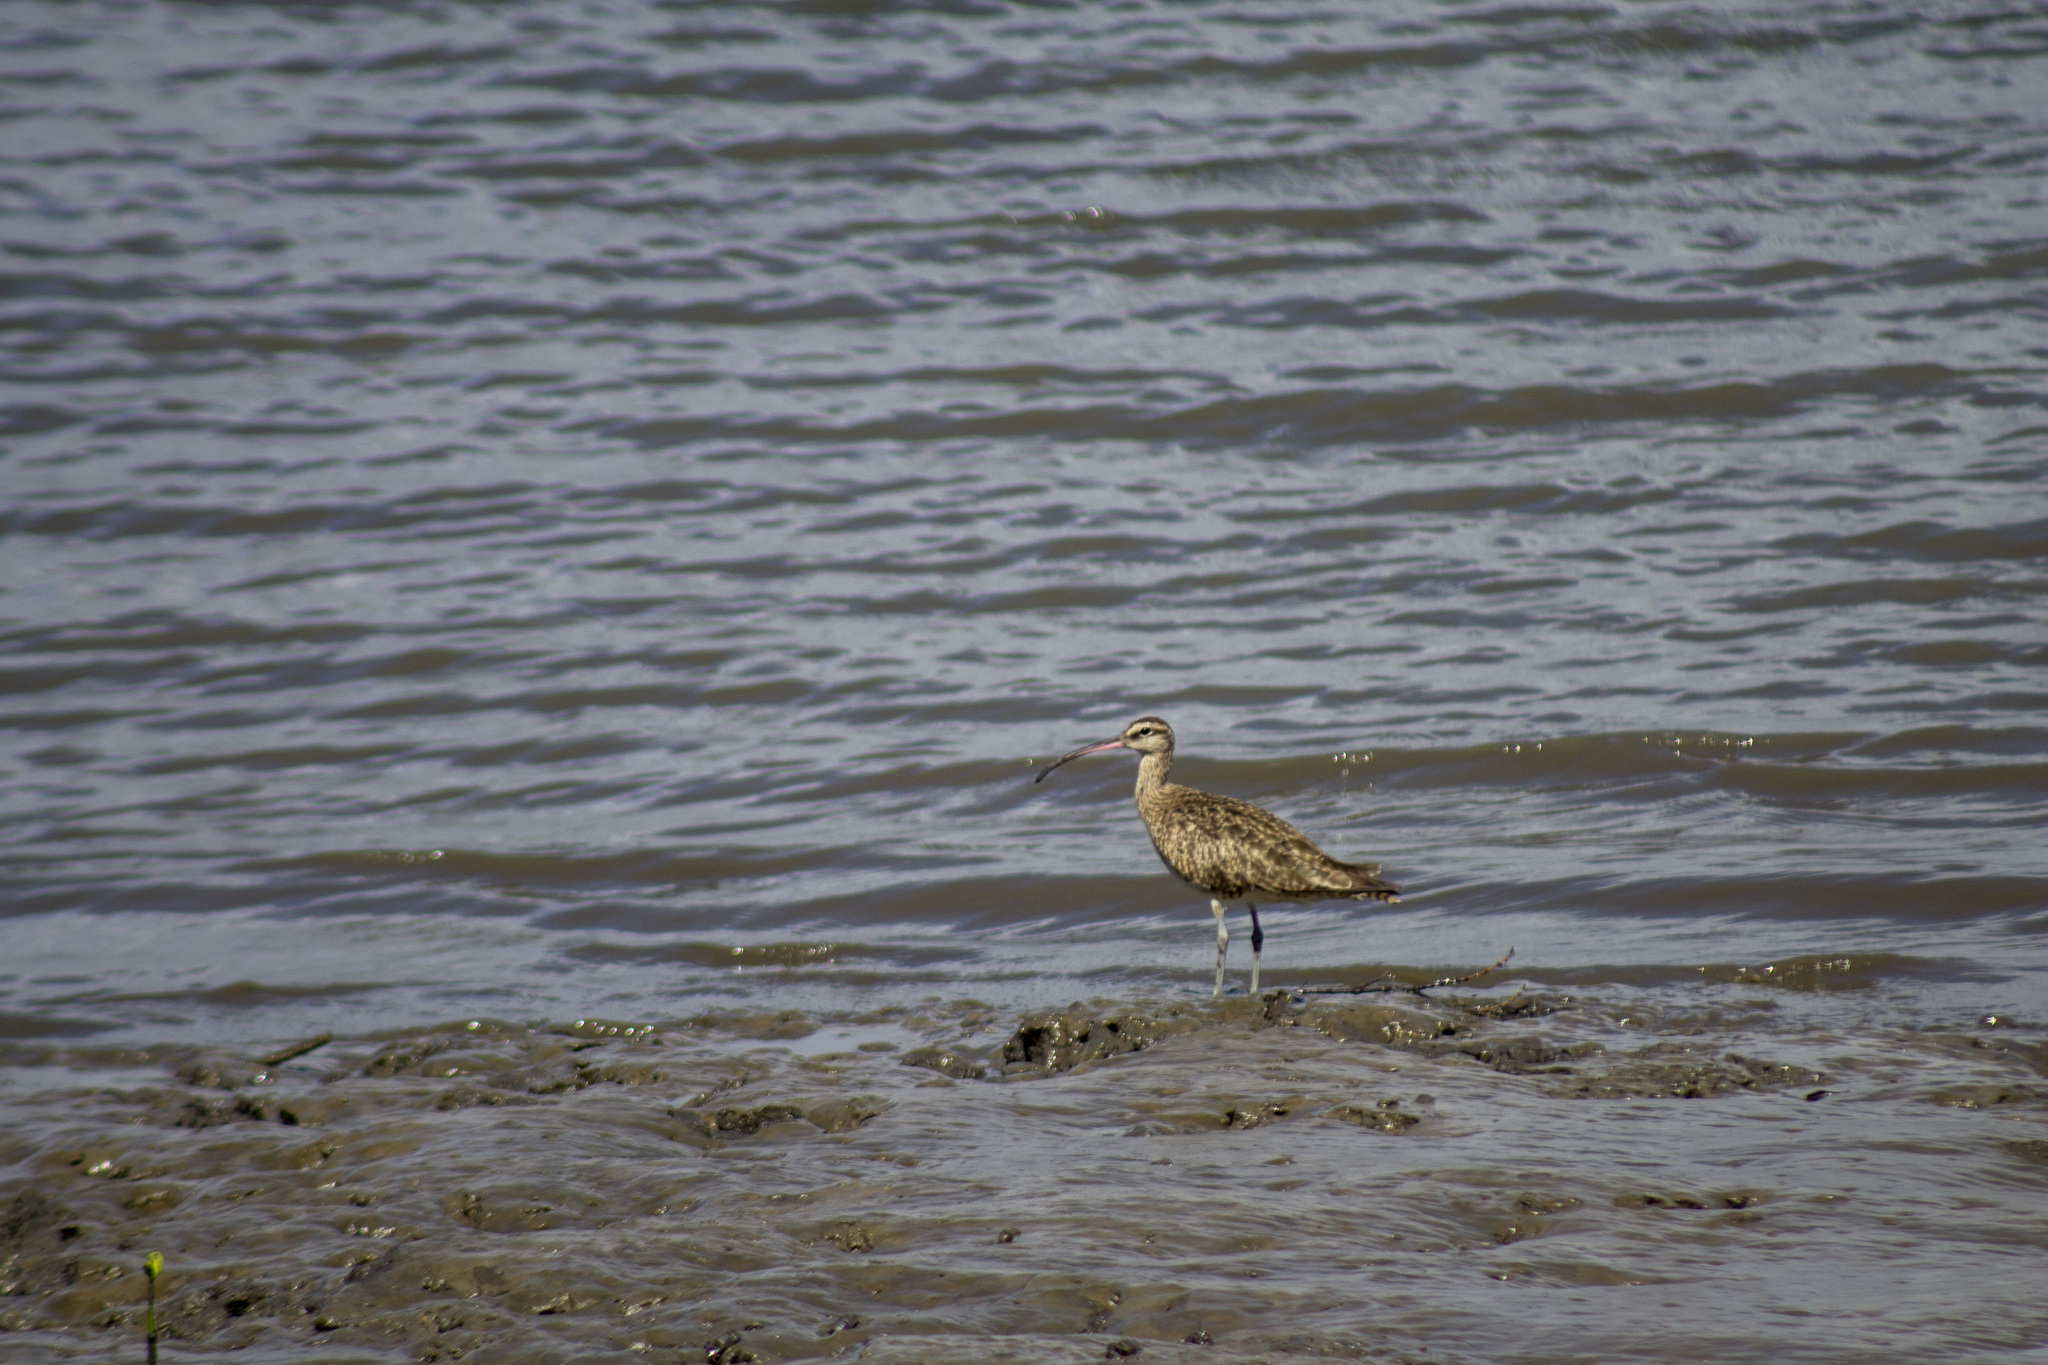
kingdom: Animalia
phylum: Chordata
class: Aves
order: Charadriiformes
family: Scolopacidae
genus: Numenius
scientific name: Numenius hudsonicus
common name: Hudsonian whimbrel
